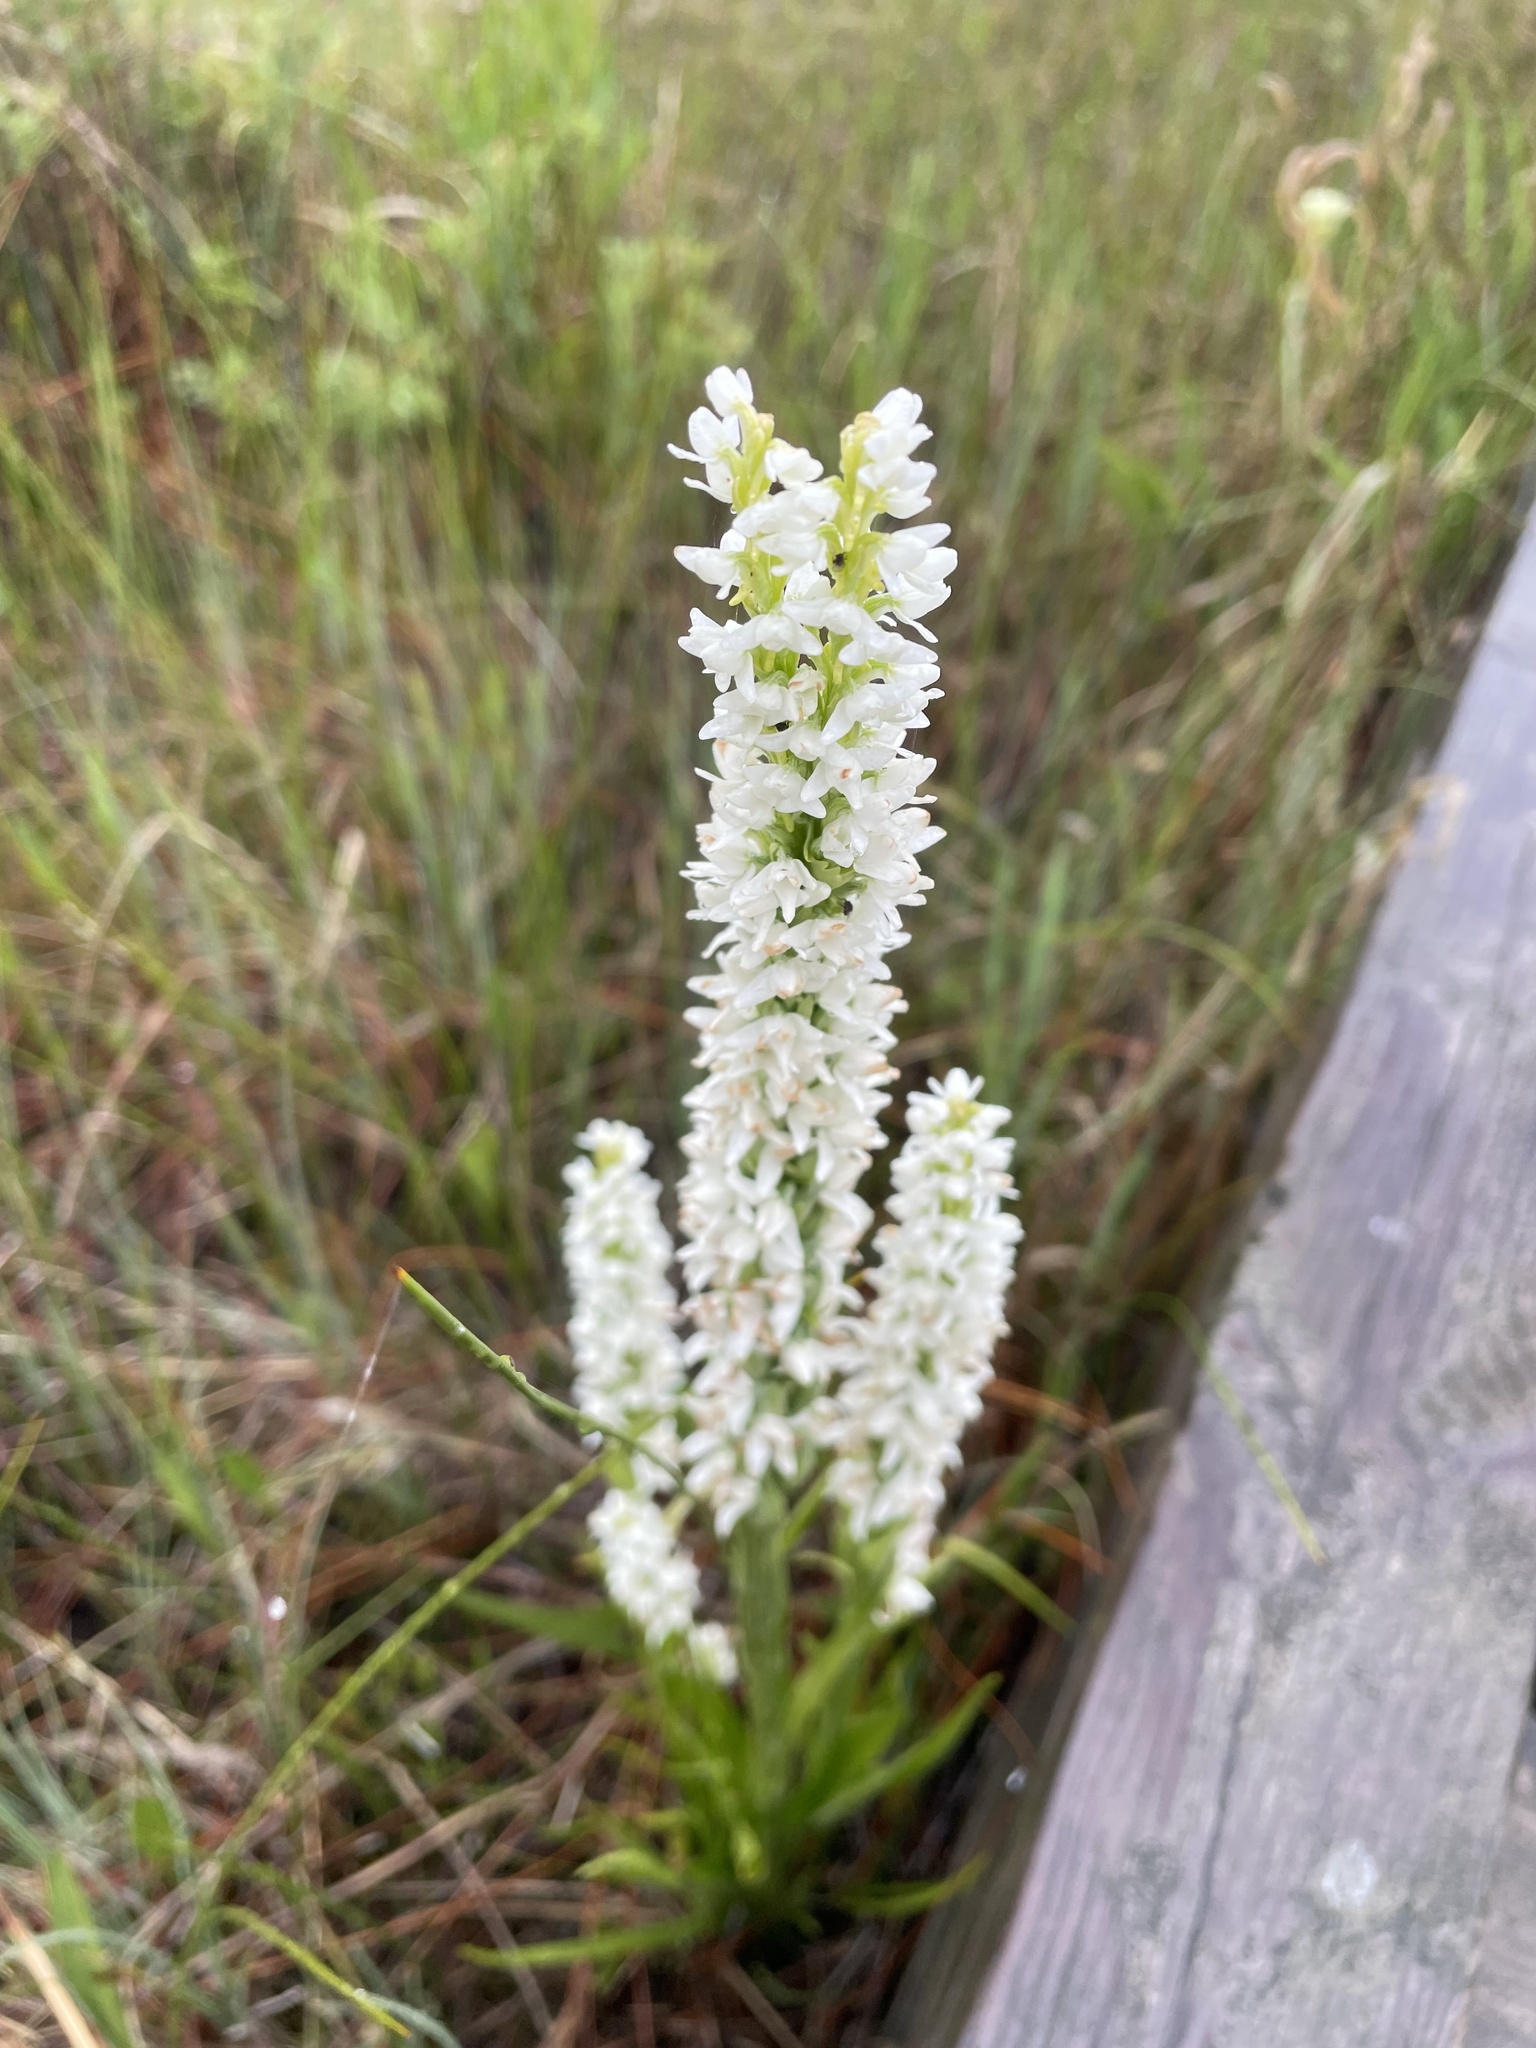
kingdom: Plantae
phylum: Tracheophyta
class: Liliopsida
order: Asparagales
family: Orchidaceae
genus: Platanthera
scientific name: Platanthera dilatata
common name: Bog candles
